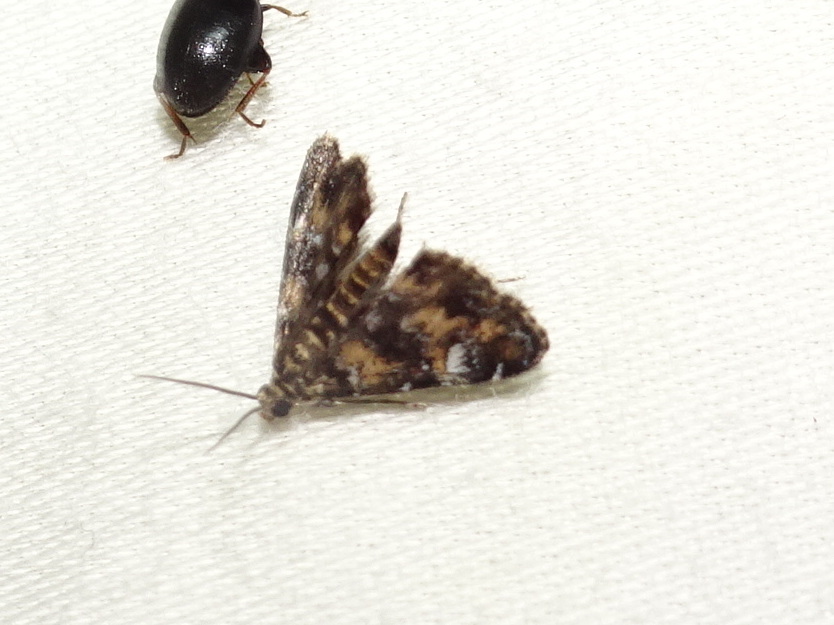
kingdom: Animalia
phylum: Arthropoda
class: Insecta
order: Lepidoptera
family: Crambidae
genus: Elophila
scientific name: Elophila obliteralis
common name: Waterlily leafcutter moth
